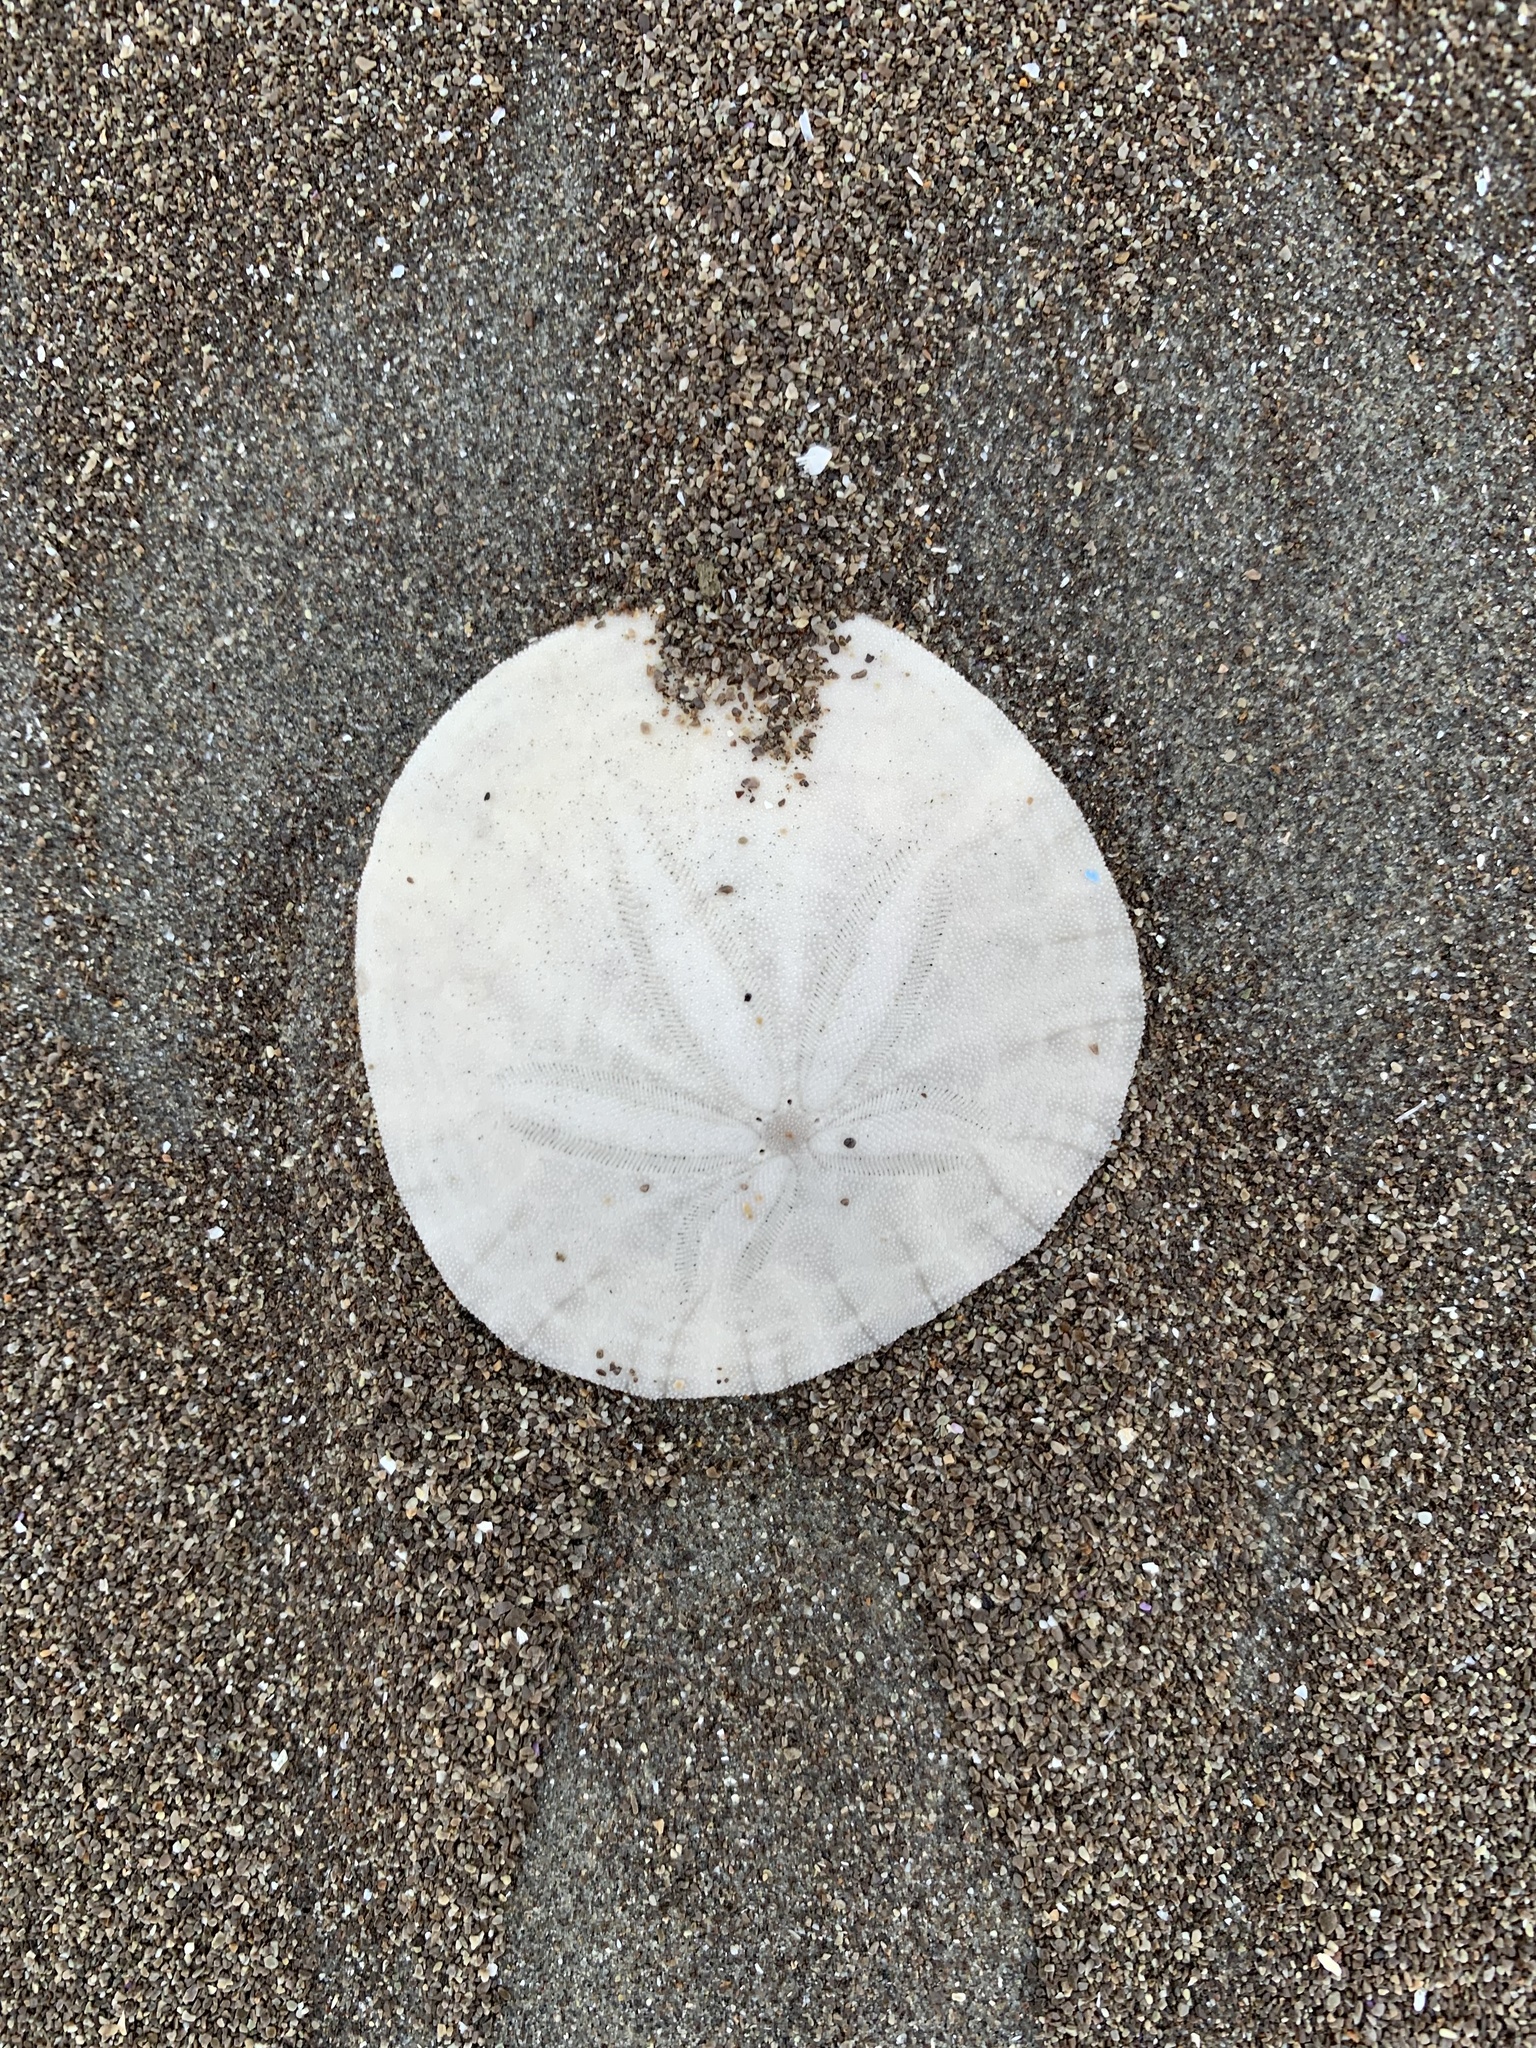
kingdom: Animalia
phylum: Echinodermata
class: Echinoidea
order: Echinolampadacea
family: Dendrasteridae
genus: Dendraster
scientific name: Dendraster excentricus
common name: Eccentric sand dollar sea urchin
